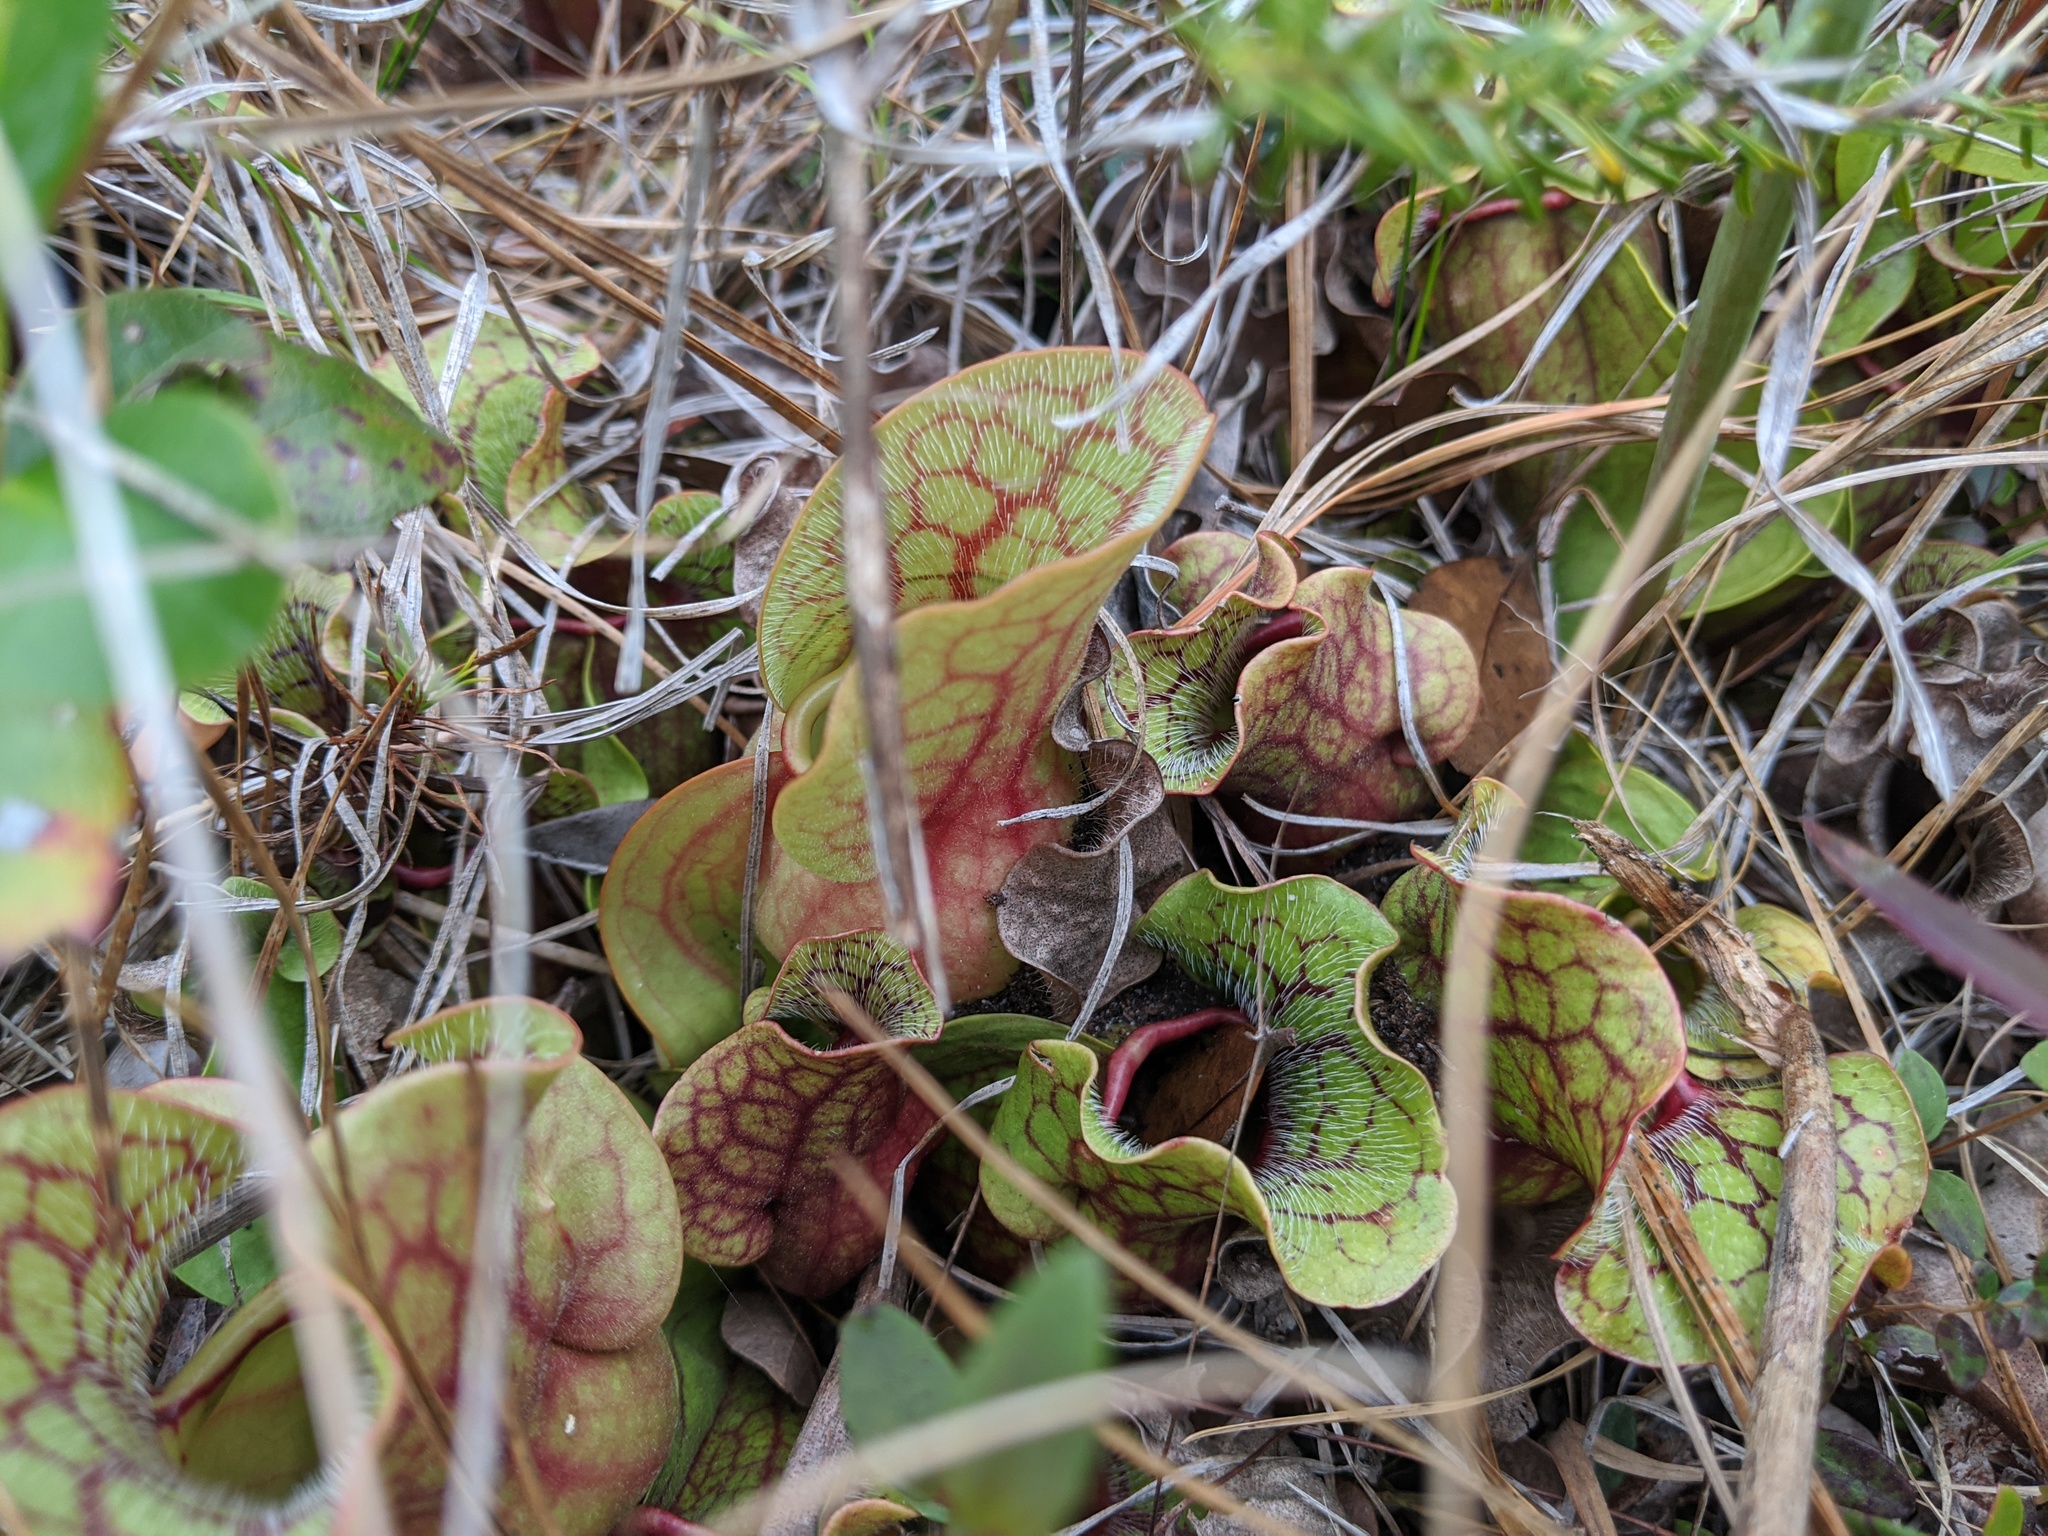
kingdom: Plantae
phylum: Tracheophyta
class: Magnoliopsida
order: Ericales
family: Sarraceniaceae
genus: Sarracenia
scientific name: Sarracenia purpurea
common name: Pitcherplant
